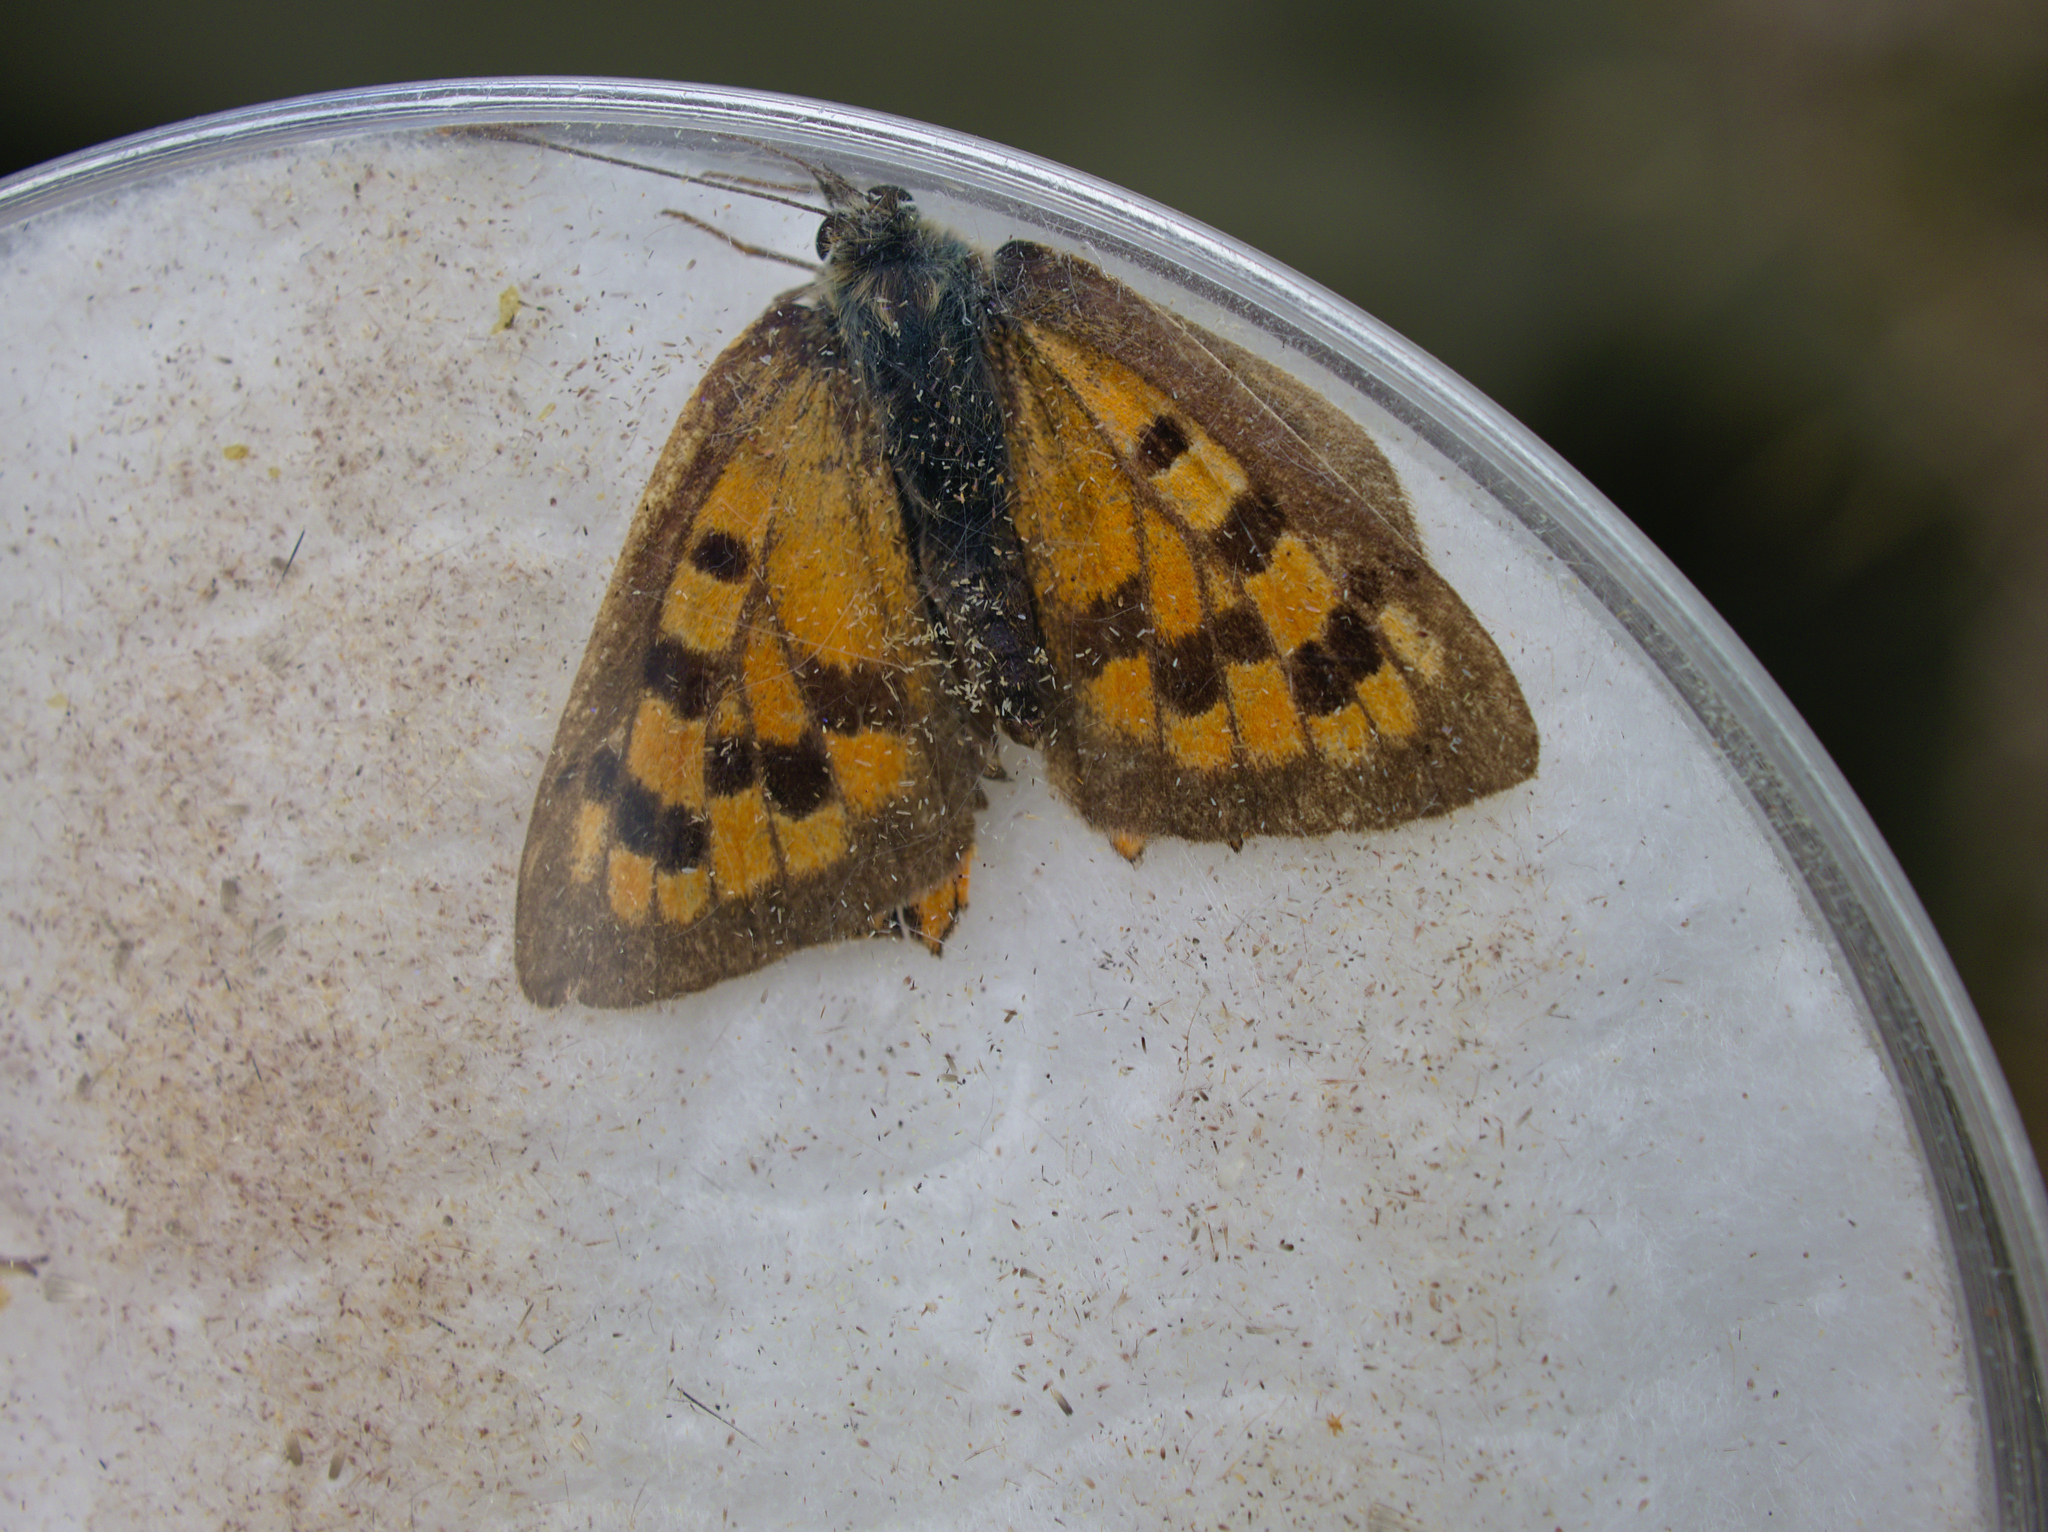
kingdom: Animalia
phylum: Arthropoda
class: Insecta
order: Lepidoptera
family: Lycaenidae
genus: Lycaena
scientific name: Lycaena phlaeas
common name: Small copper
